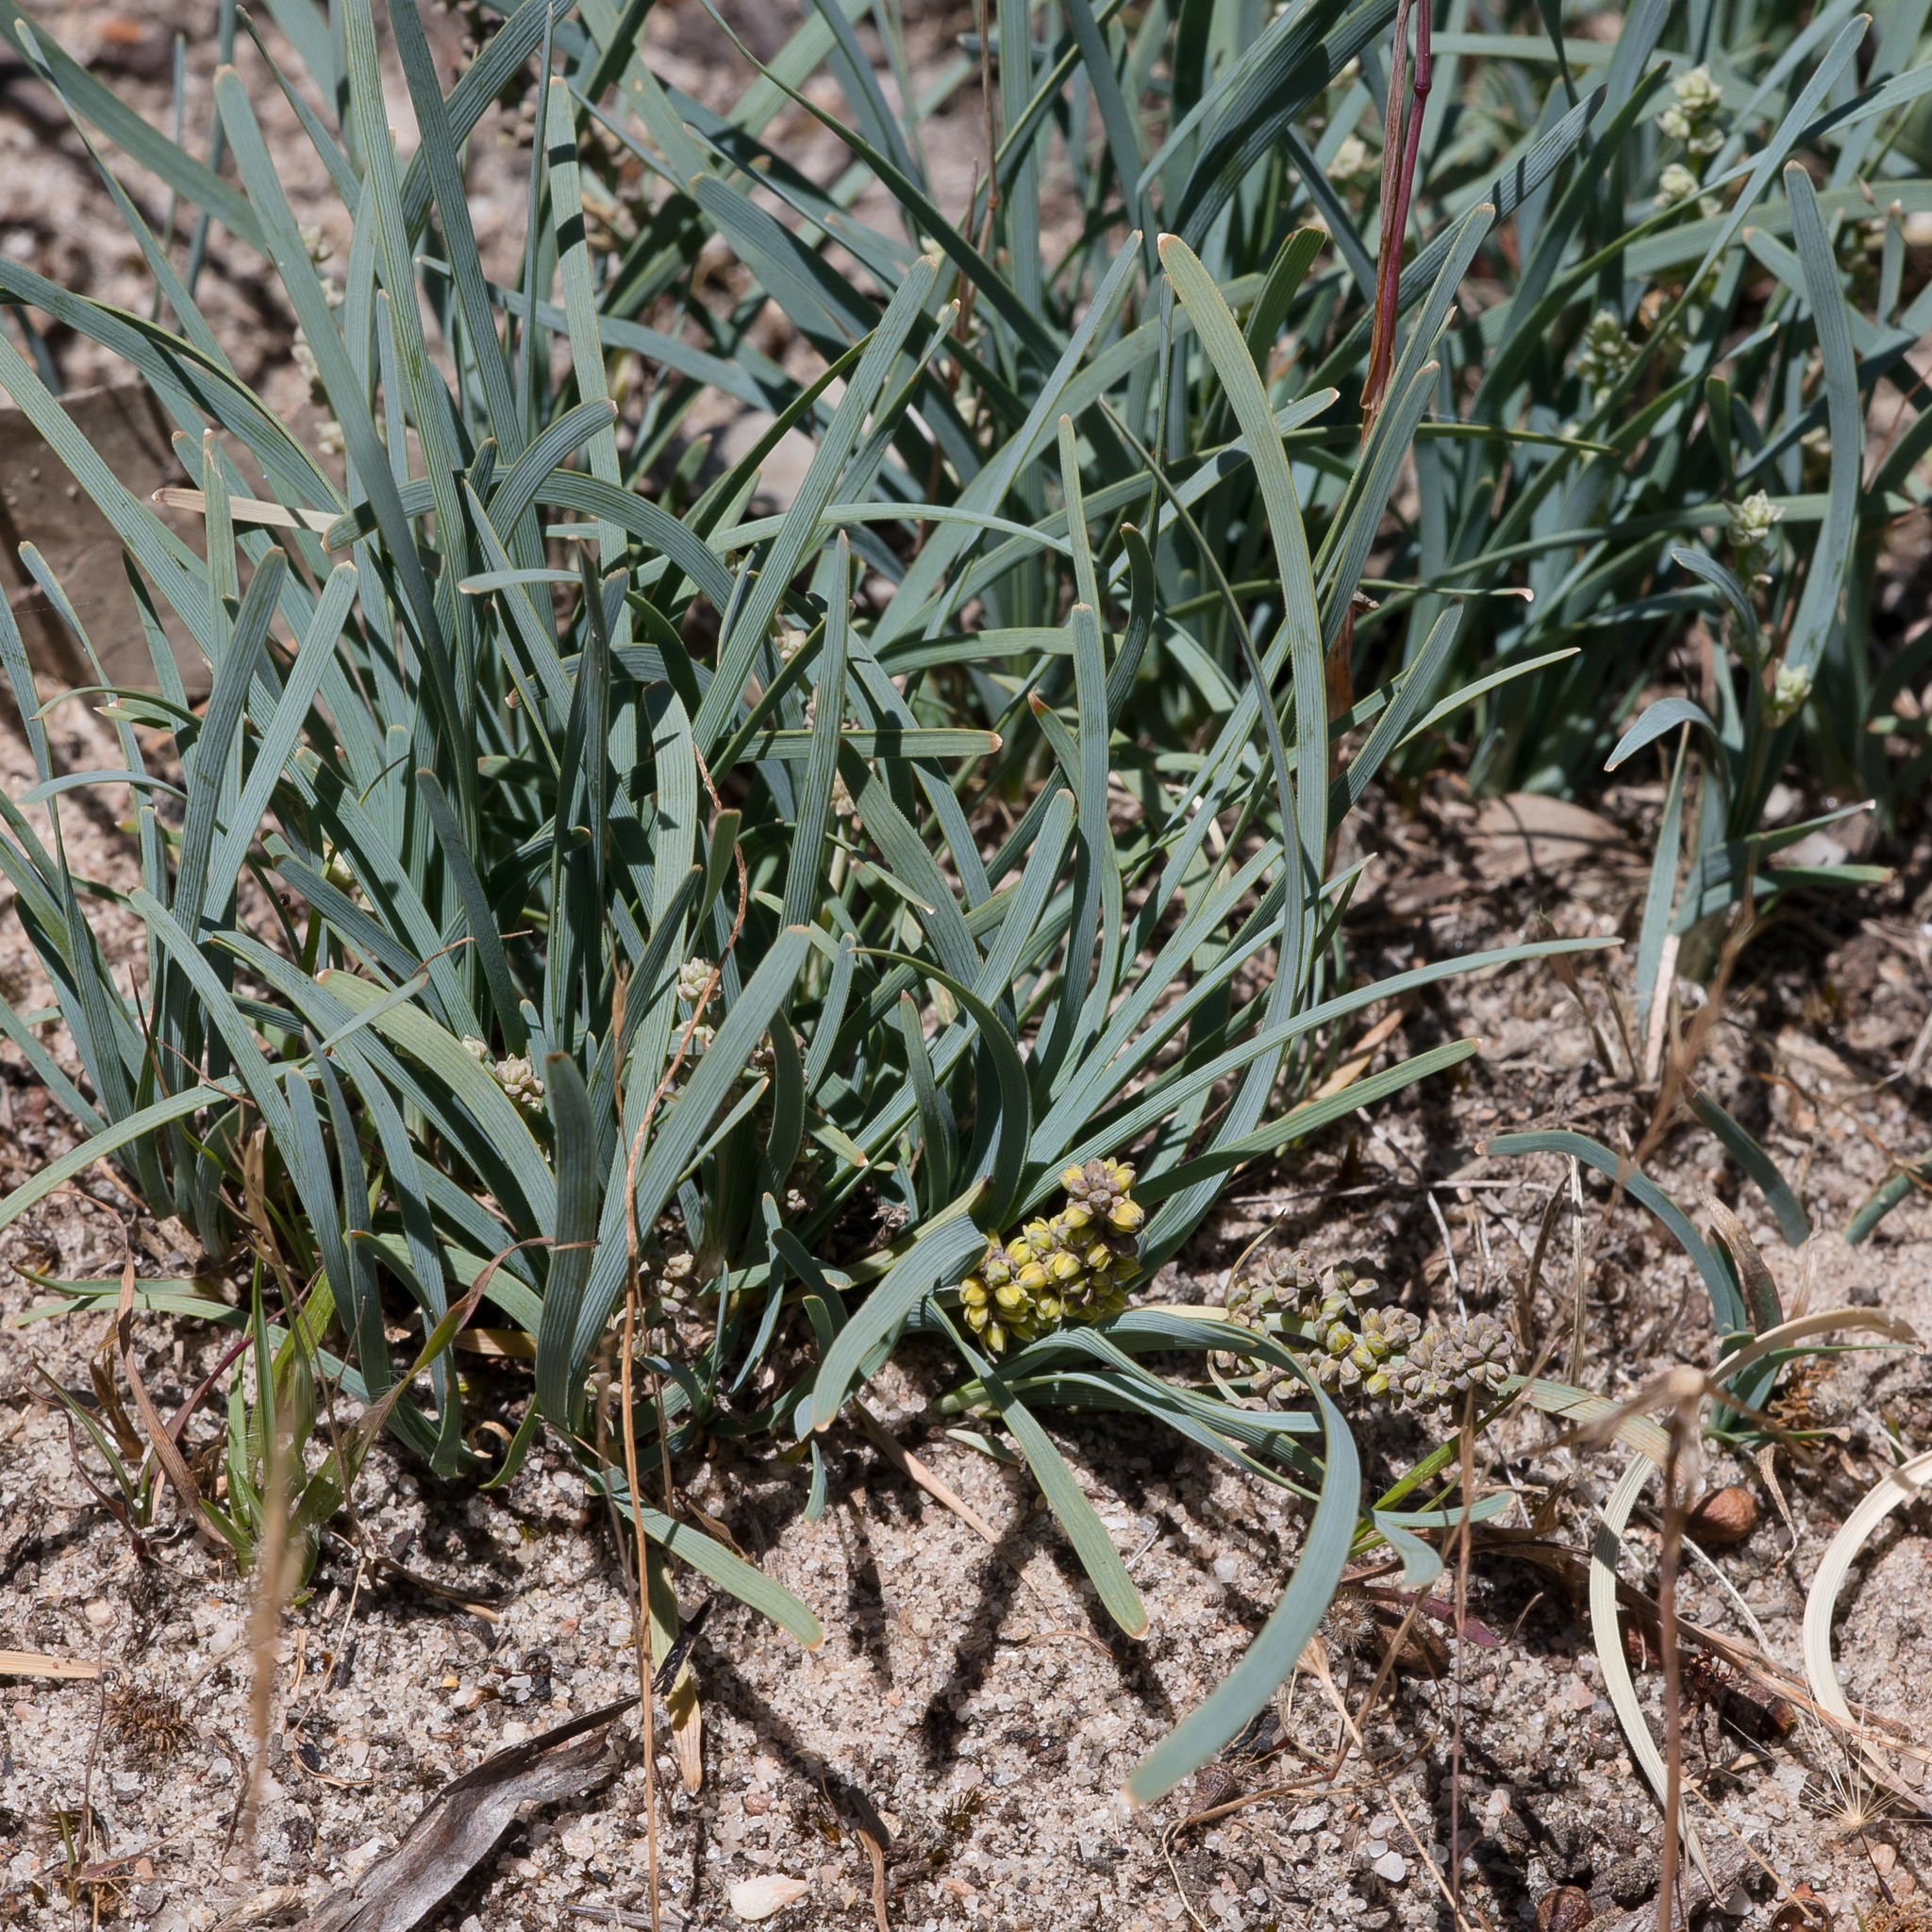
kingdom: Plantae
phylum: Tracheophyta
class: Liliopsida
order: Asparagales
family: Asparagaceae
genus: Lomandra
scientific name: Lomandra nana
